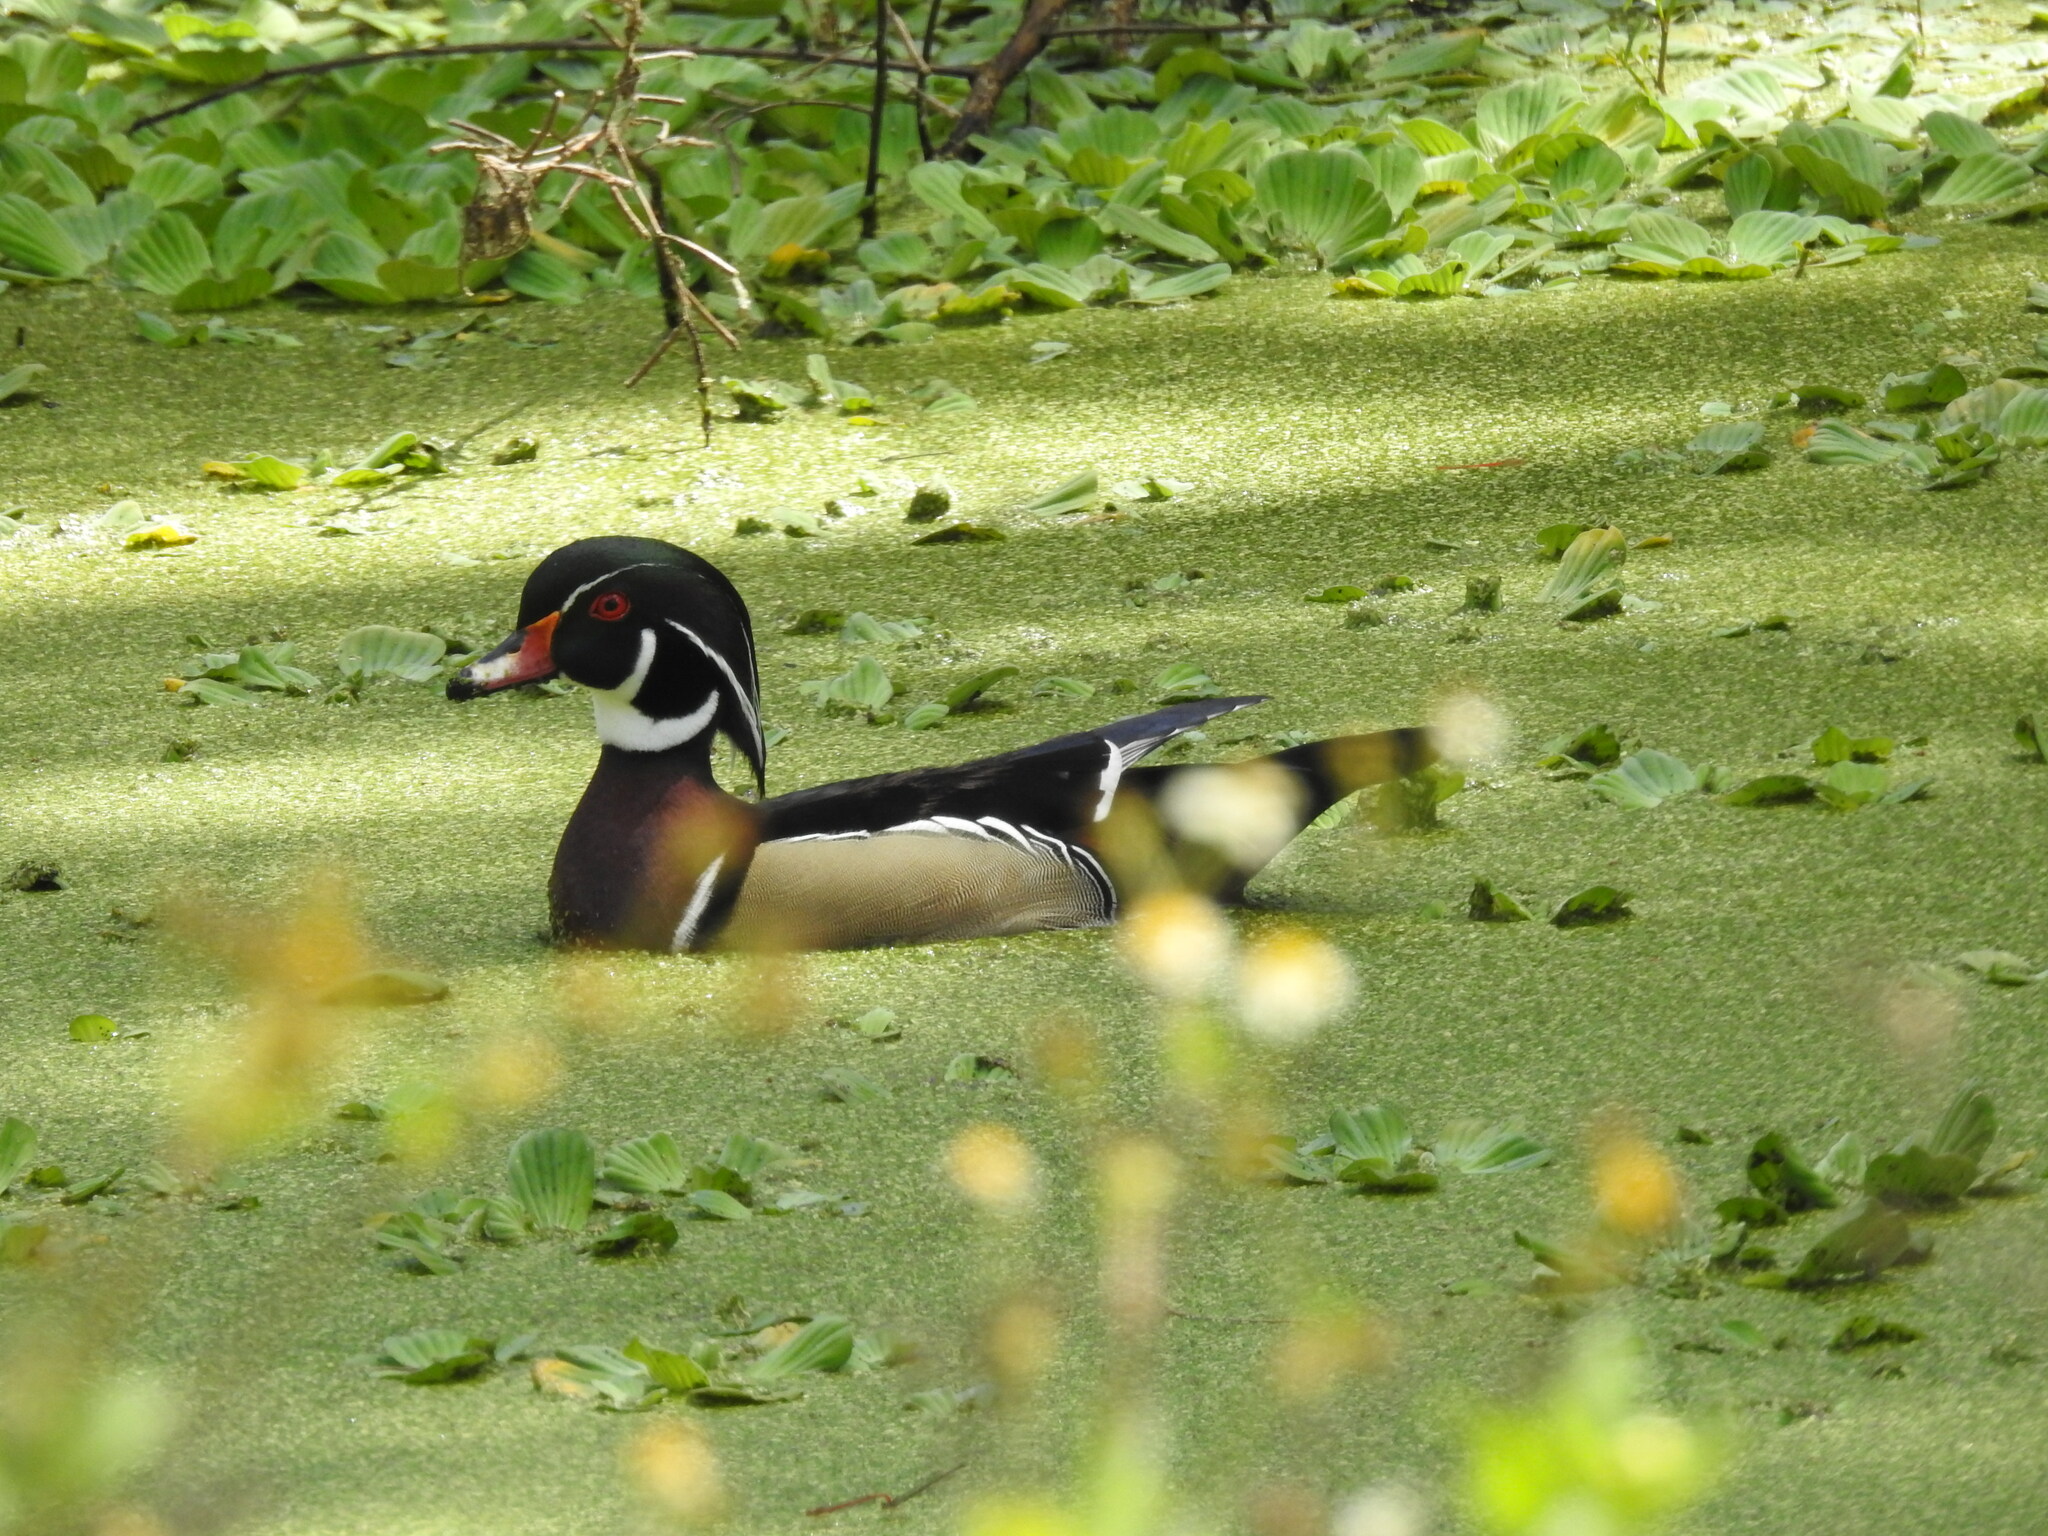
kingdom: Animalia
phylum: Chordata
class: Aves
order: Anseriformes
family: Anatidae
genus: Aix
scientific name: Aix sponsa
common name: Wood duck
